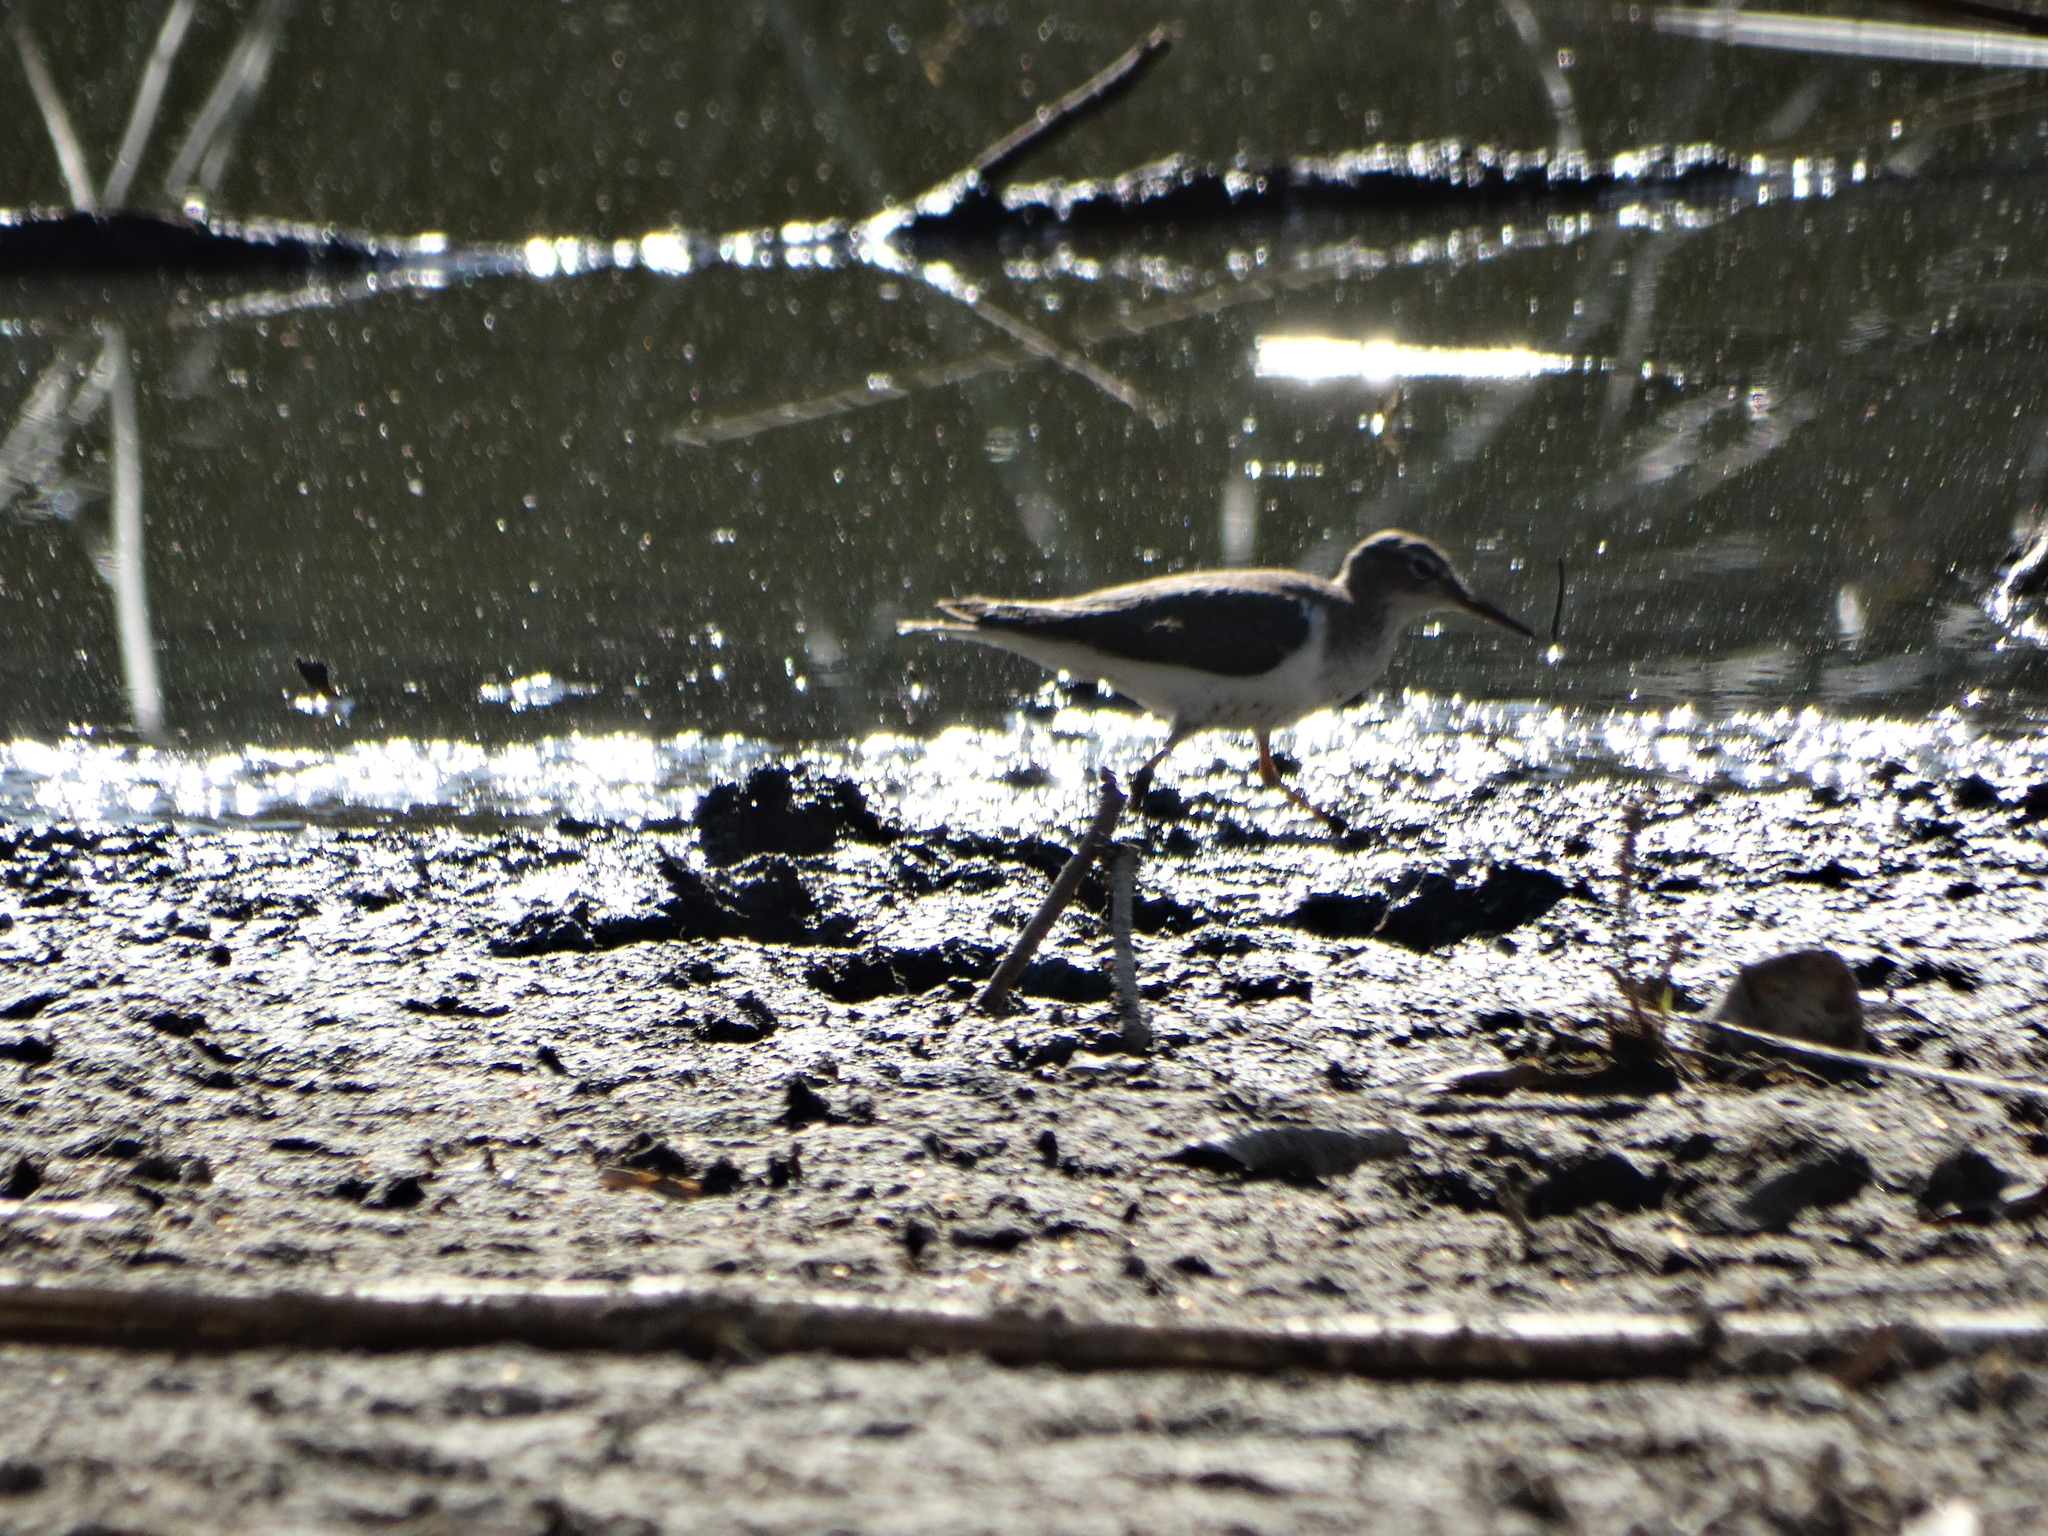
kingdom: Animalia
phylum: Chordata
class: Aves
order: Charadriiformes
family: Scolopacidae
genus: Actitis
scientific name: Actitis macularius
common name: Spotted sandpiper
